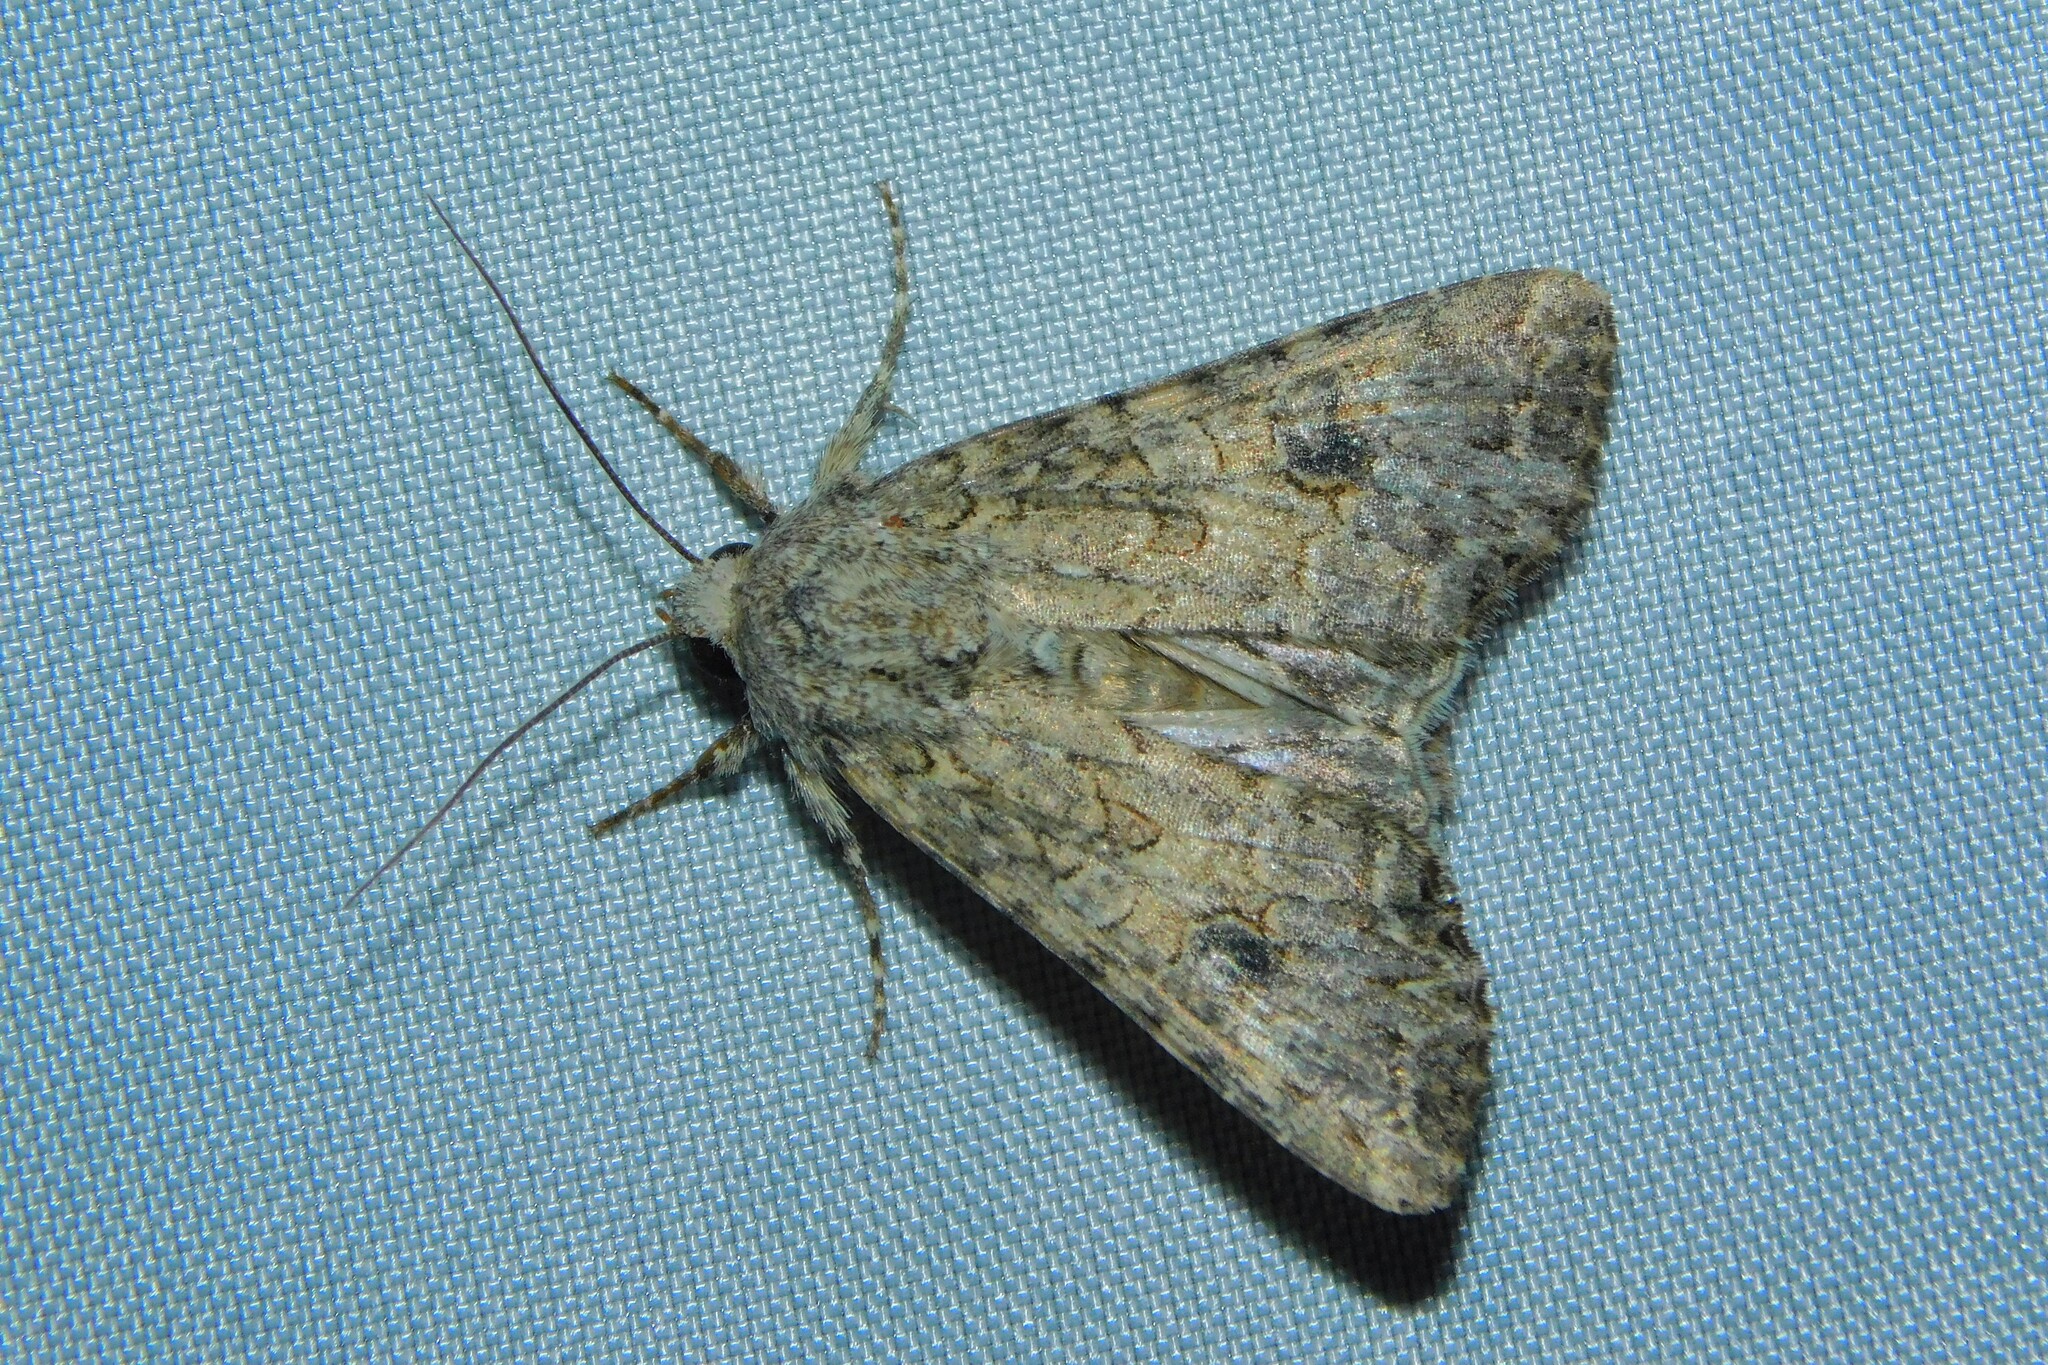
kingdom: Animalia
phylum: Arthropoda
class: Insecta
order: Lepidoptera
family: Noctuidae
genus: Anarta
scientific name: Anarta trifolii
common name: Clover cutworm moth
